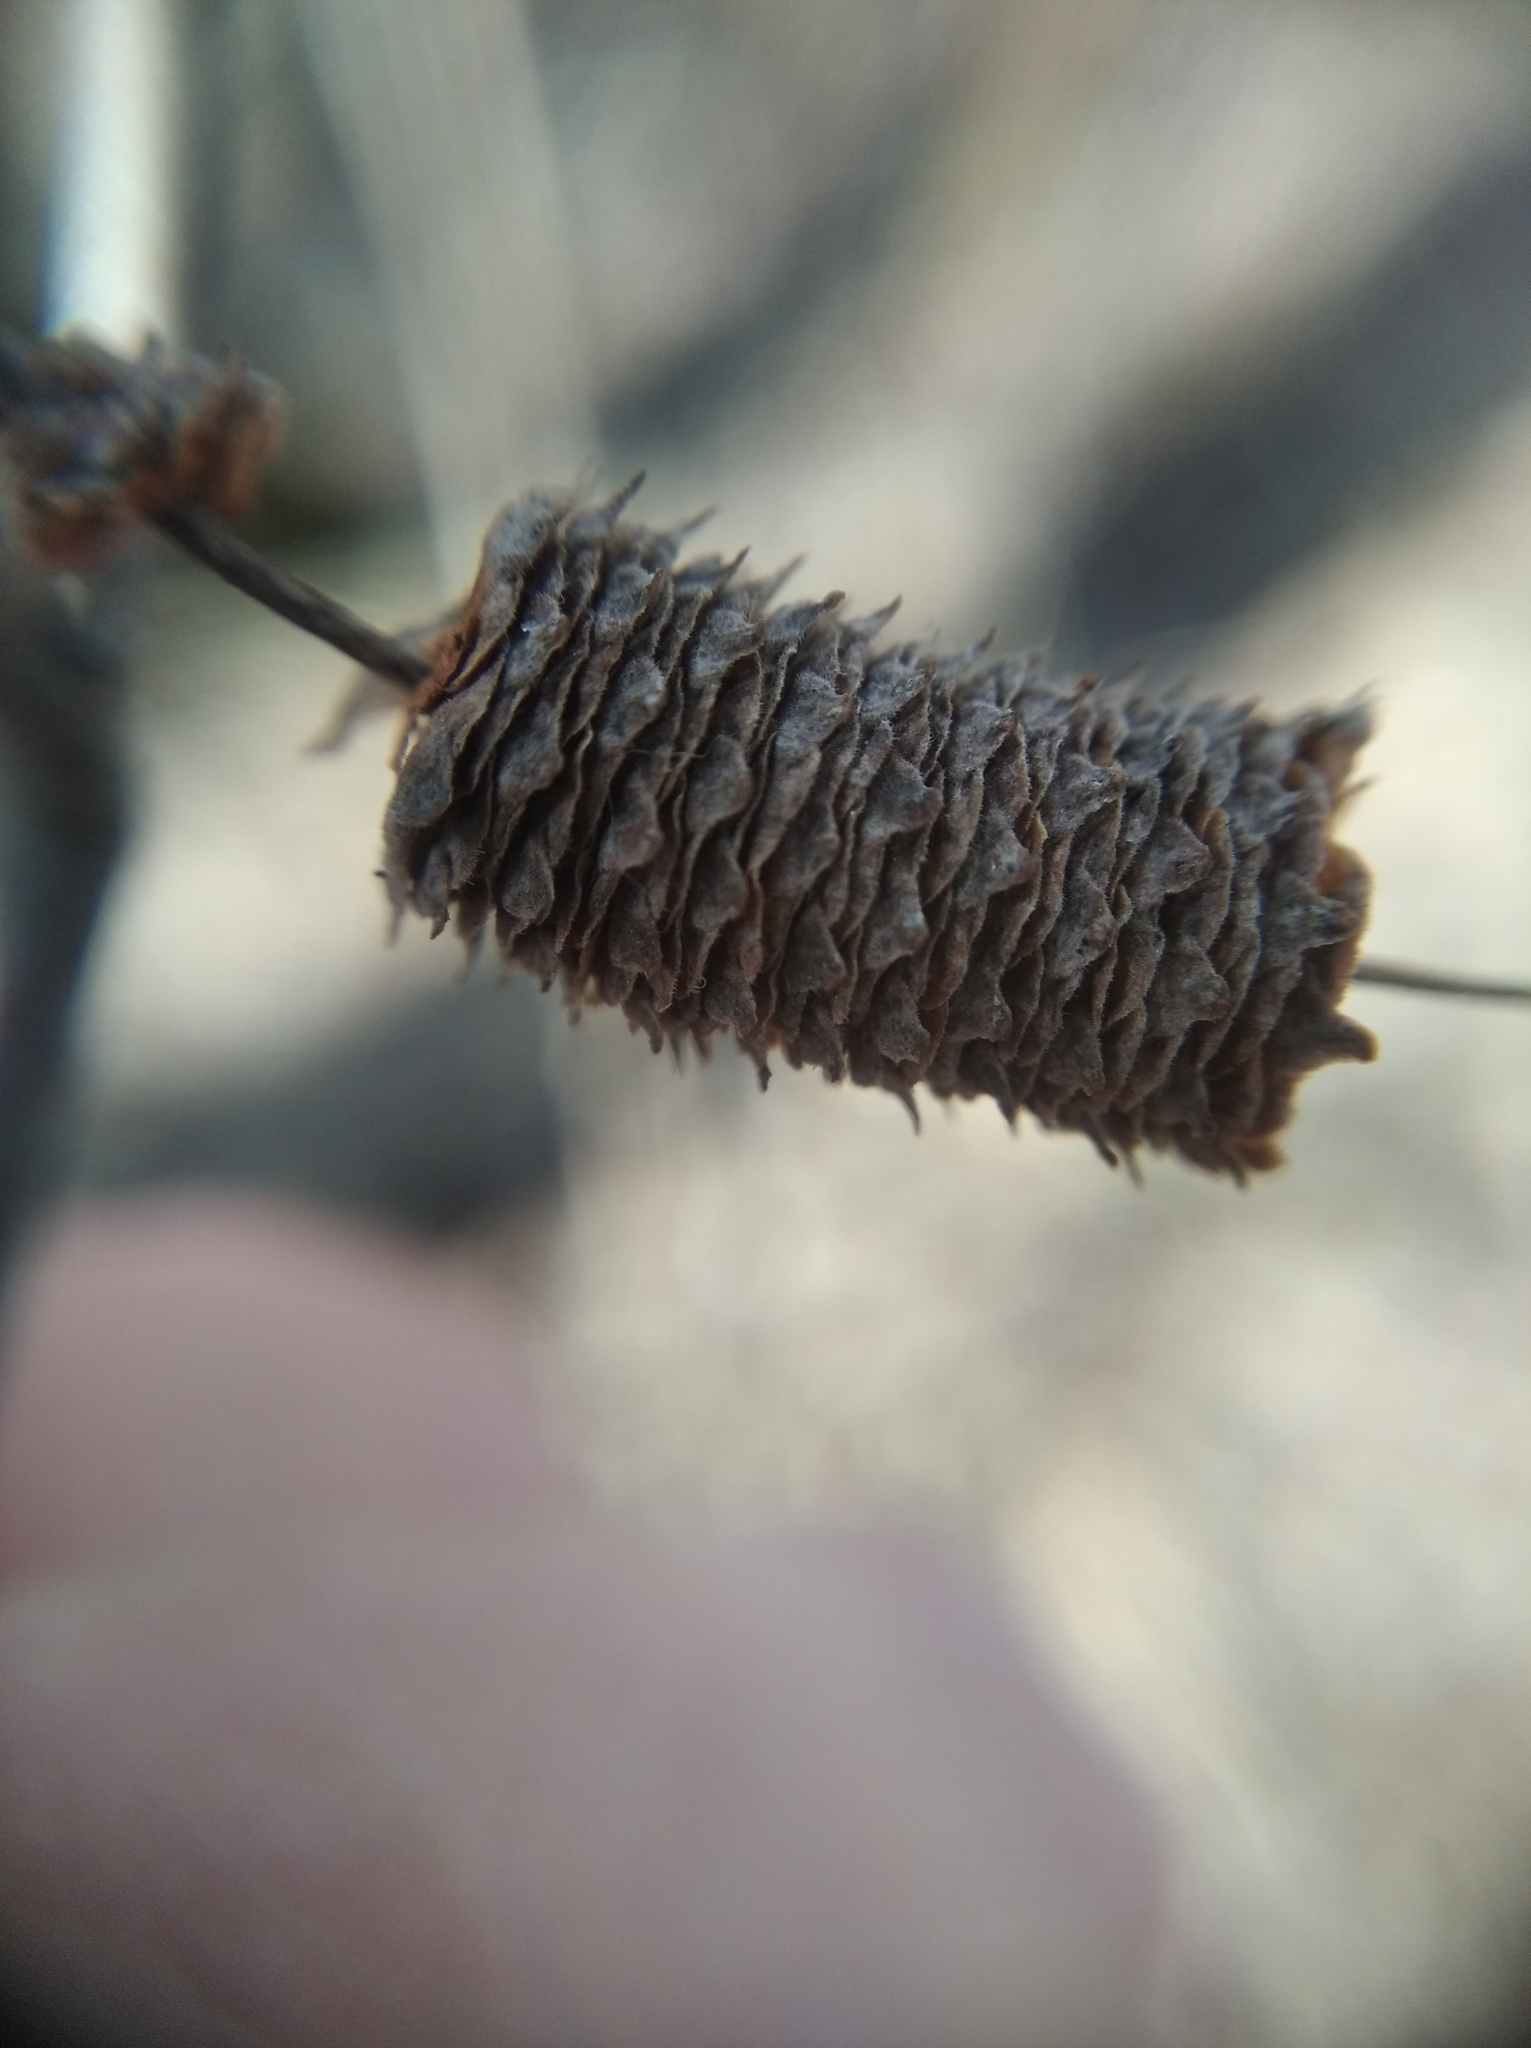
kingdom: Plantae
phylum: Tracheophyta
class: Magnoliopsida
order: Fagales
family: Betulaceae
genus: Betula
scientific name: Betula pendula
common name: Silver birch
